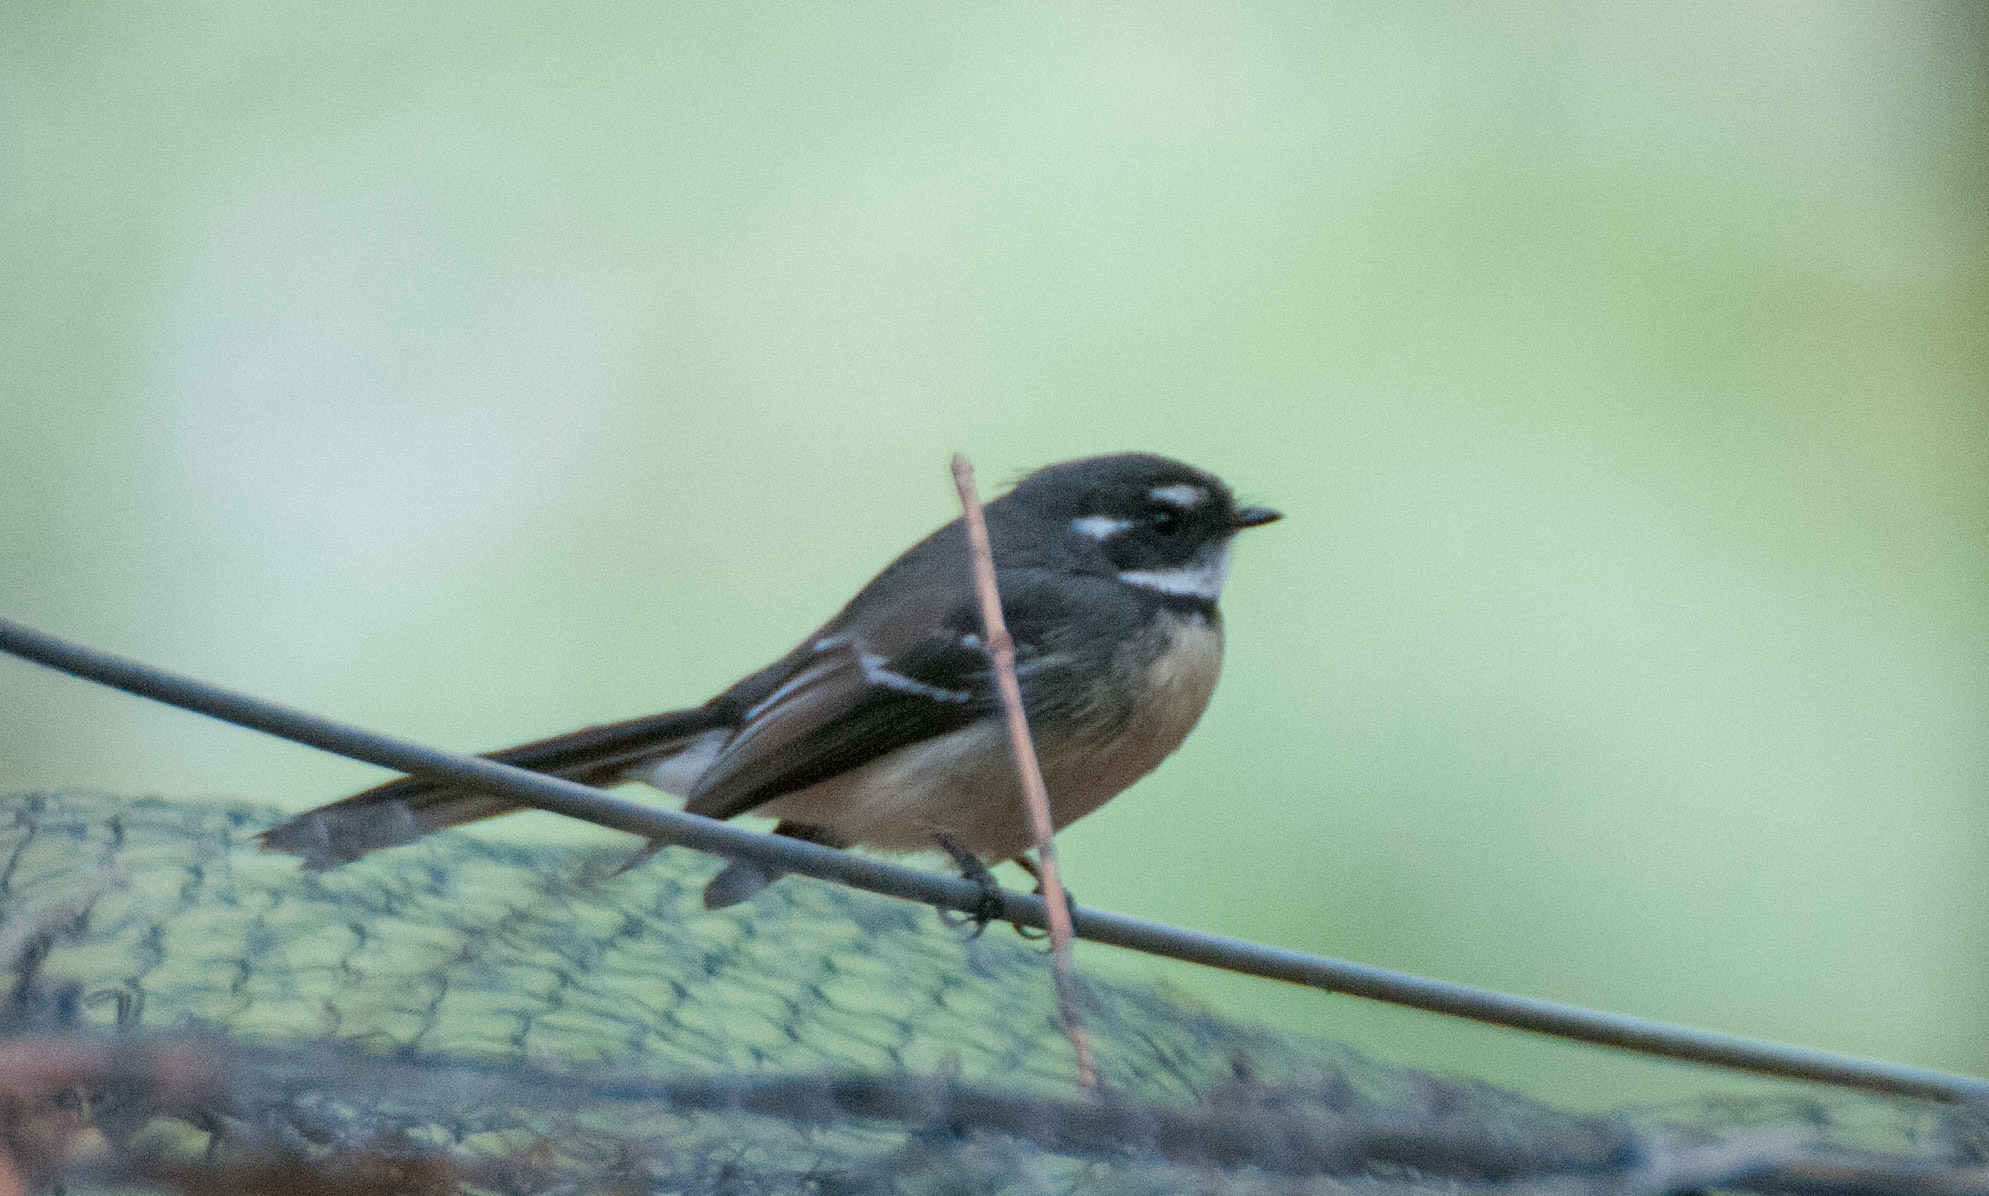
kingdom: Animalia
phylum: Chordata
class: Aves
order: Passeriformes
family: Rhipiduridae
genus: Rhipidura
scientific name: Rhipidura albiscapa
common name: Grey fantail
